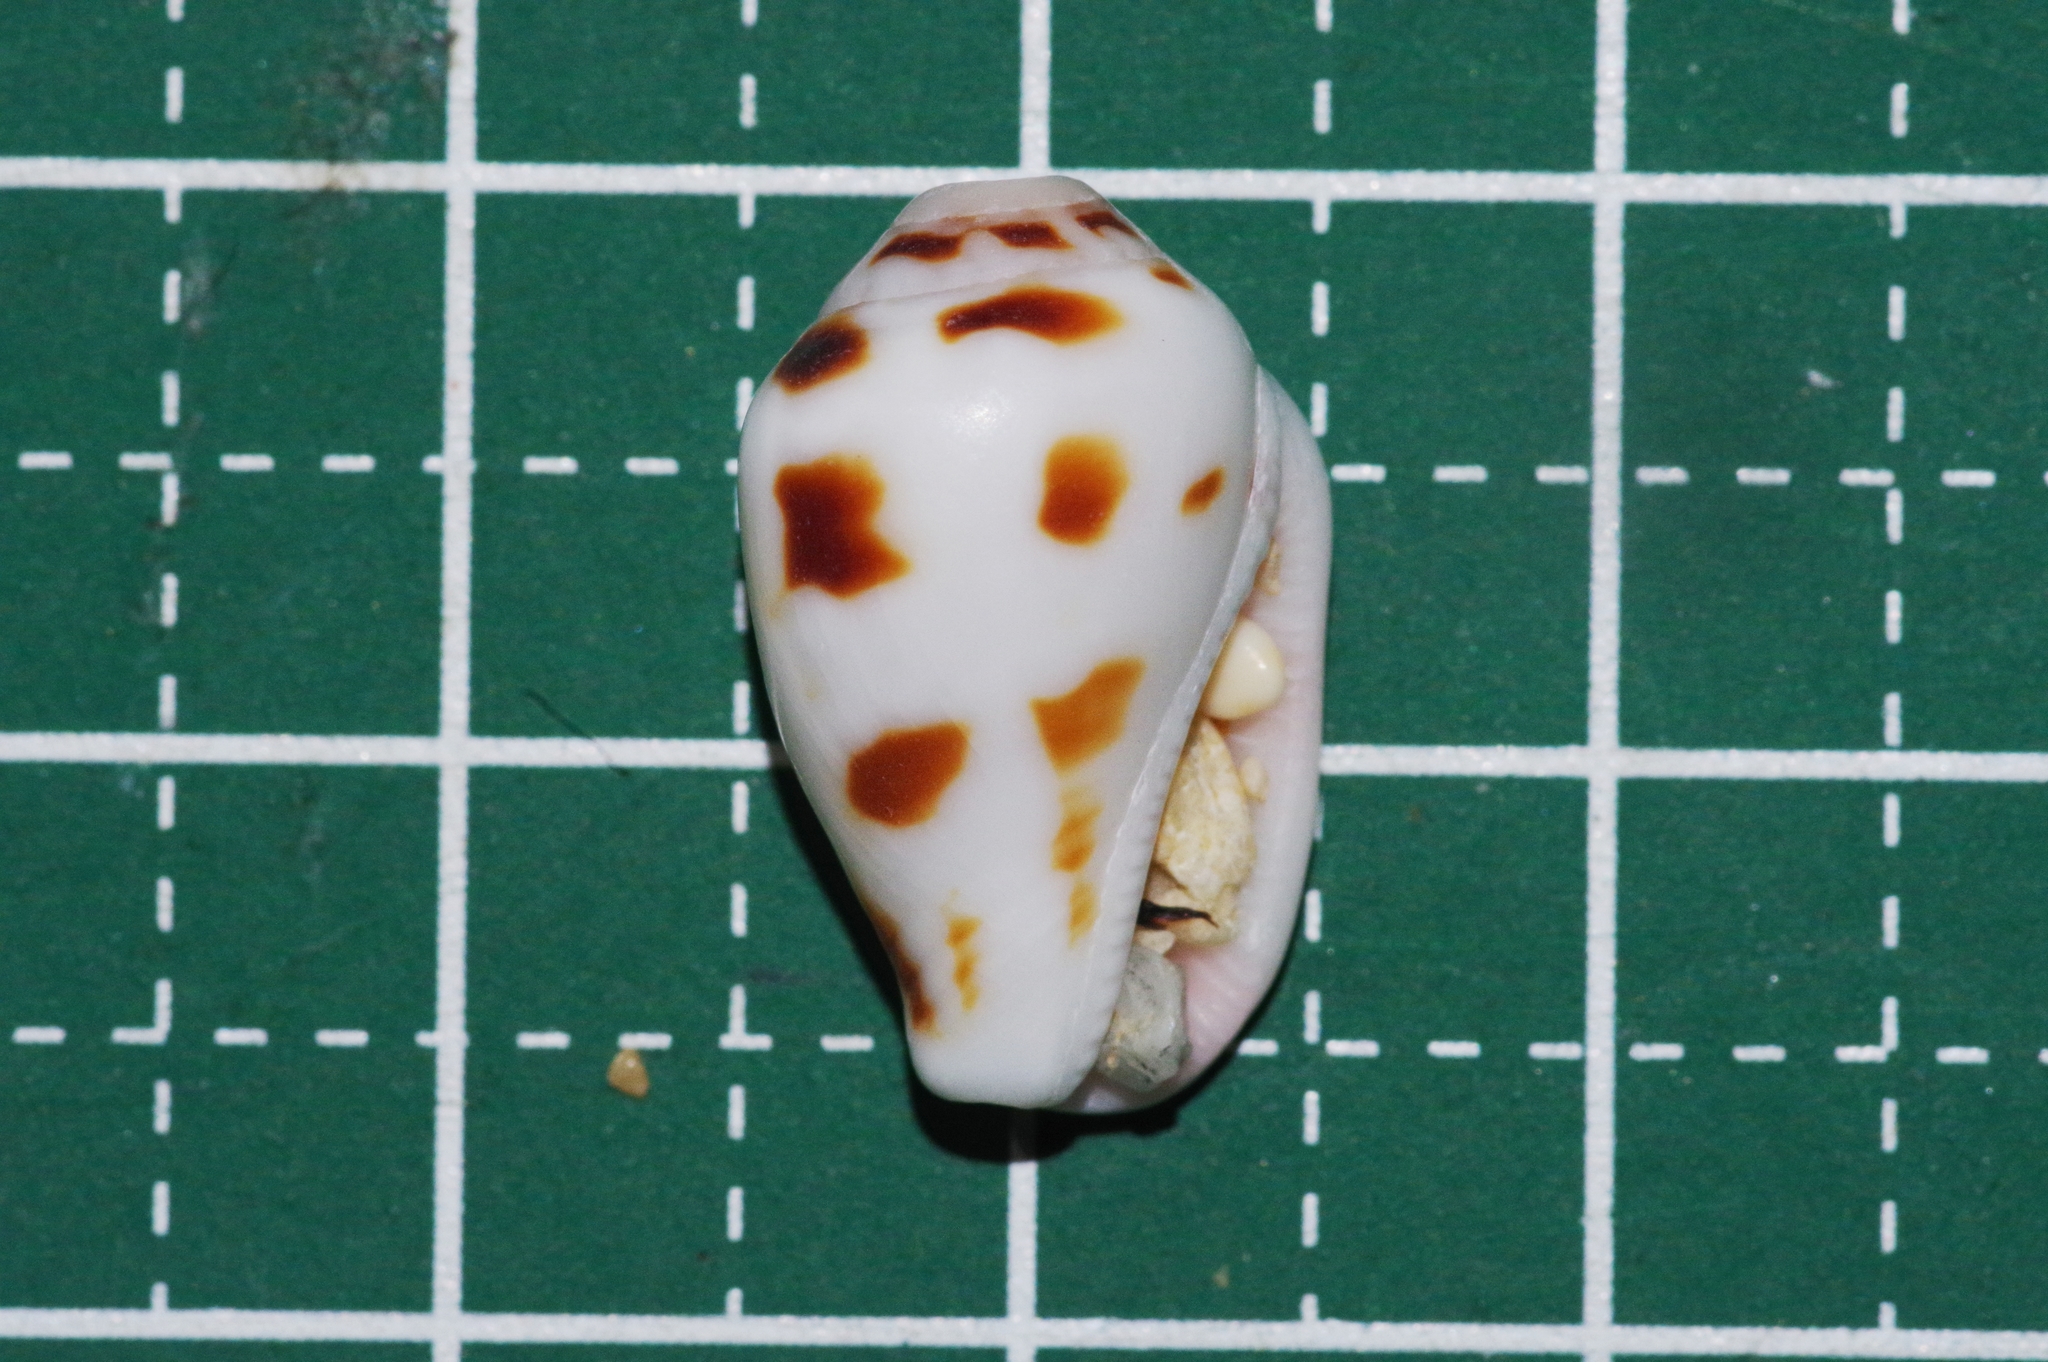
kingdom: Animalia
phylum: Mollusca
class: Gastropoda
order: Littorinimorpha
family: Strombidae
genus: Canarium
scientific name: Canarium mutabile
